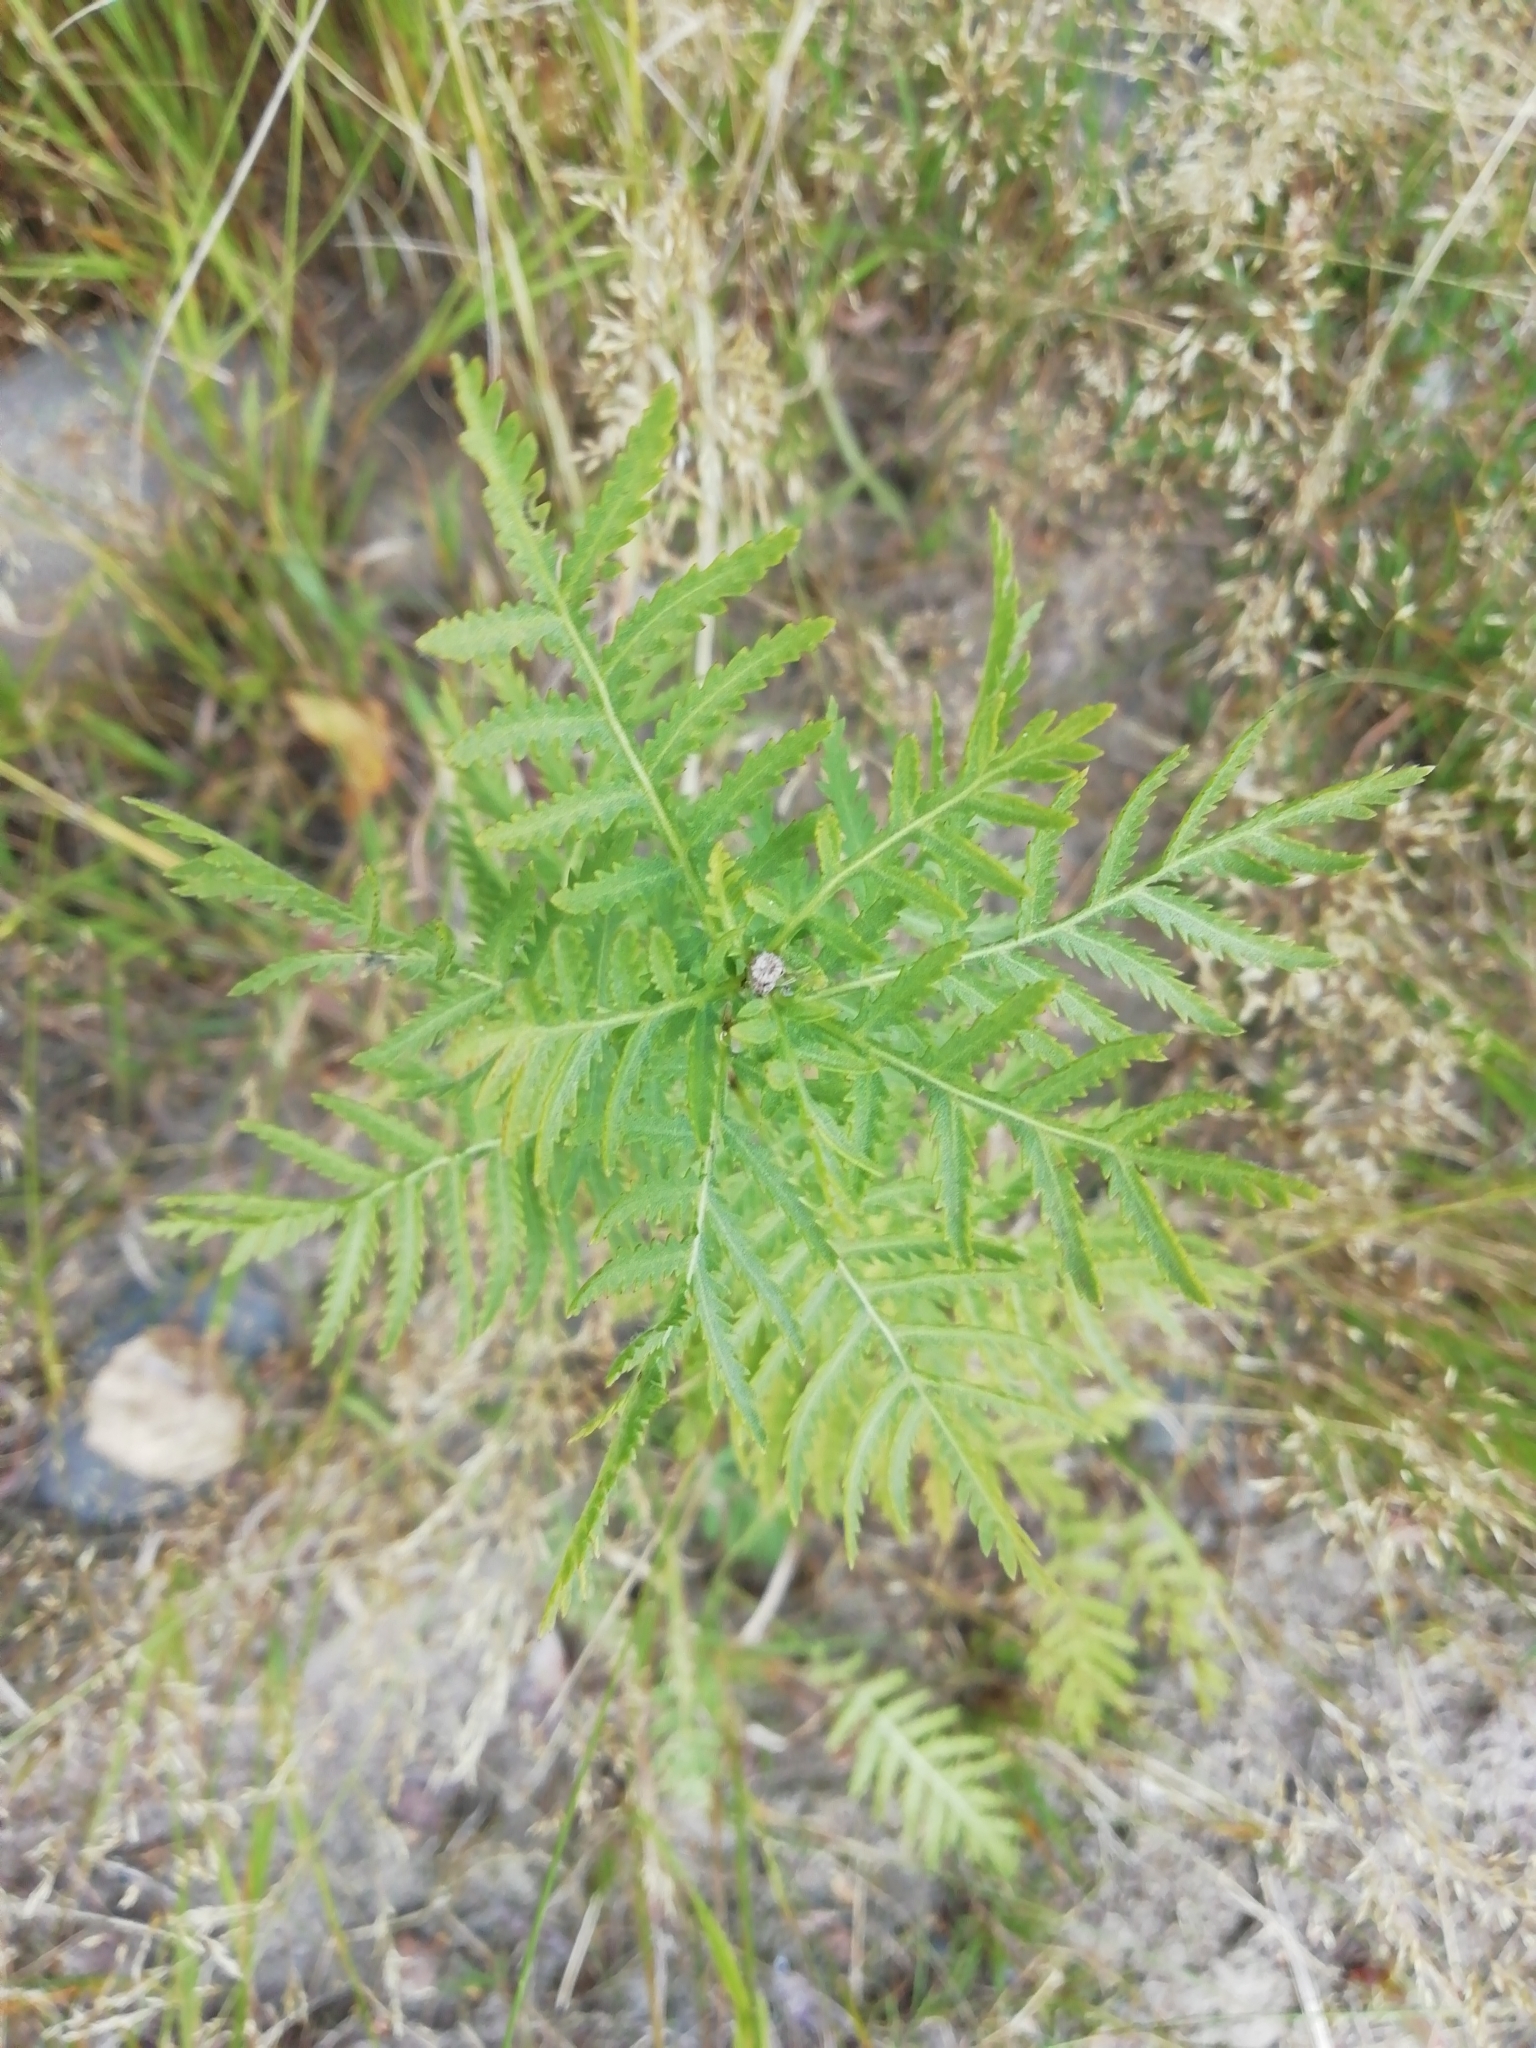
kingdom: Plantae
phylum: Tracheophyta
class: Magnoliopsida
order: Asterales
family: Asteraceae
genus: Tanacetum
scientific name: Tanacetum vulgare
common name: Common tansy
